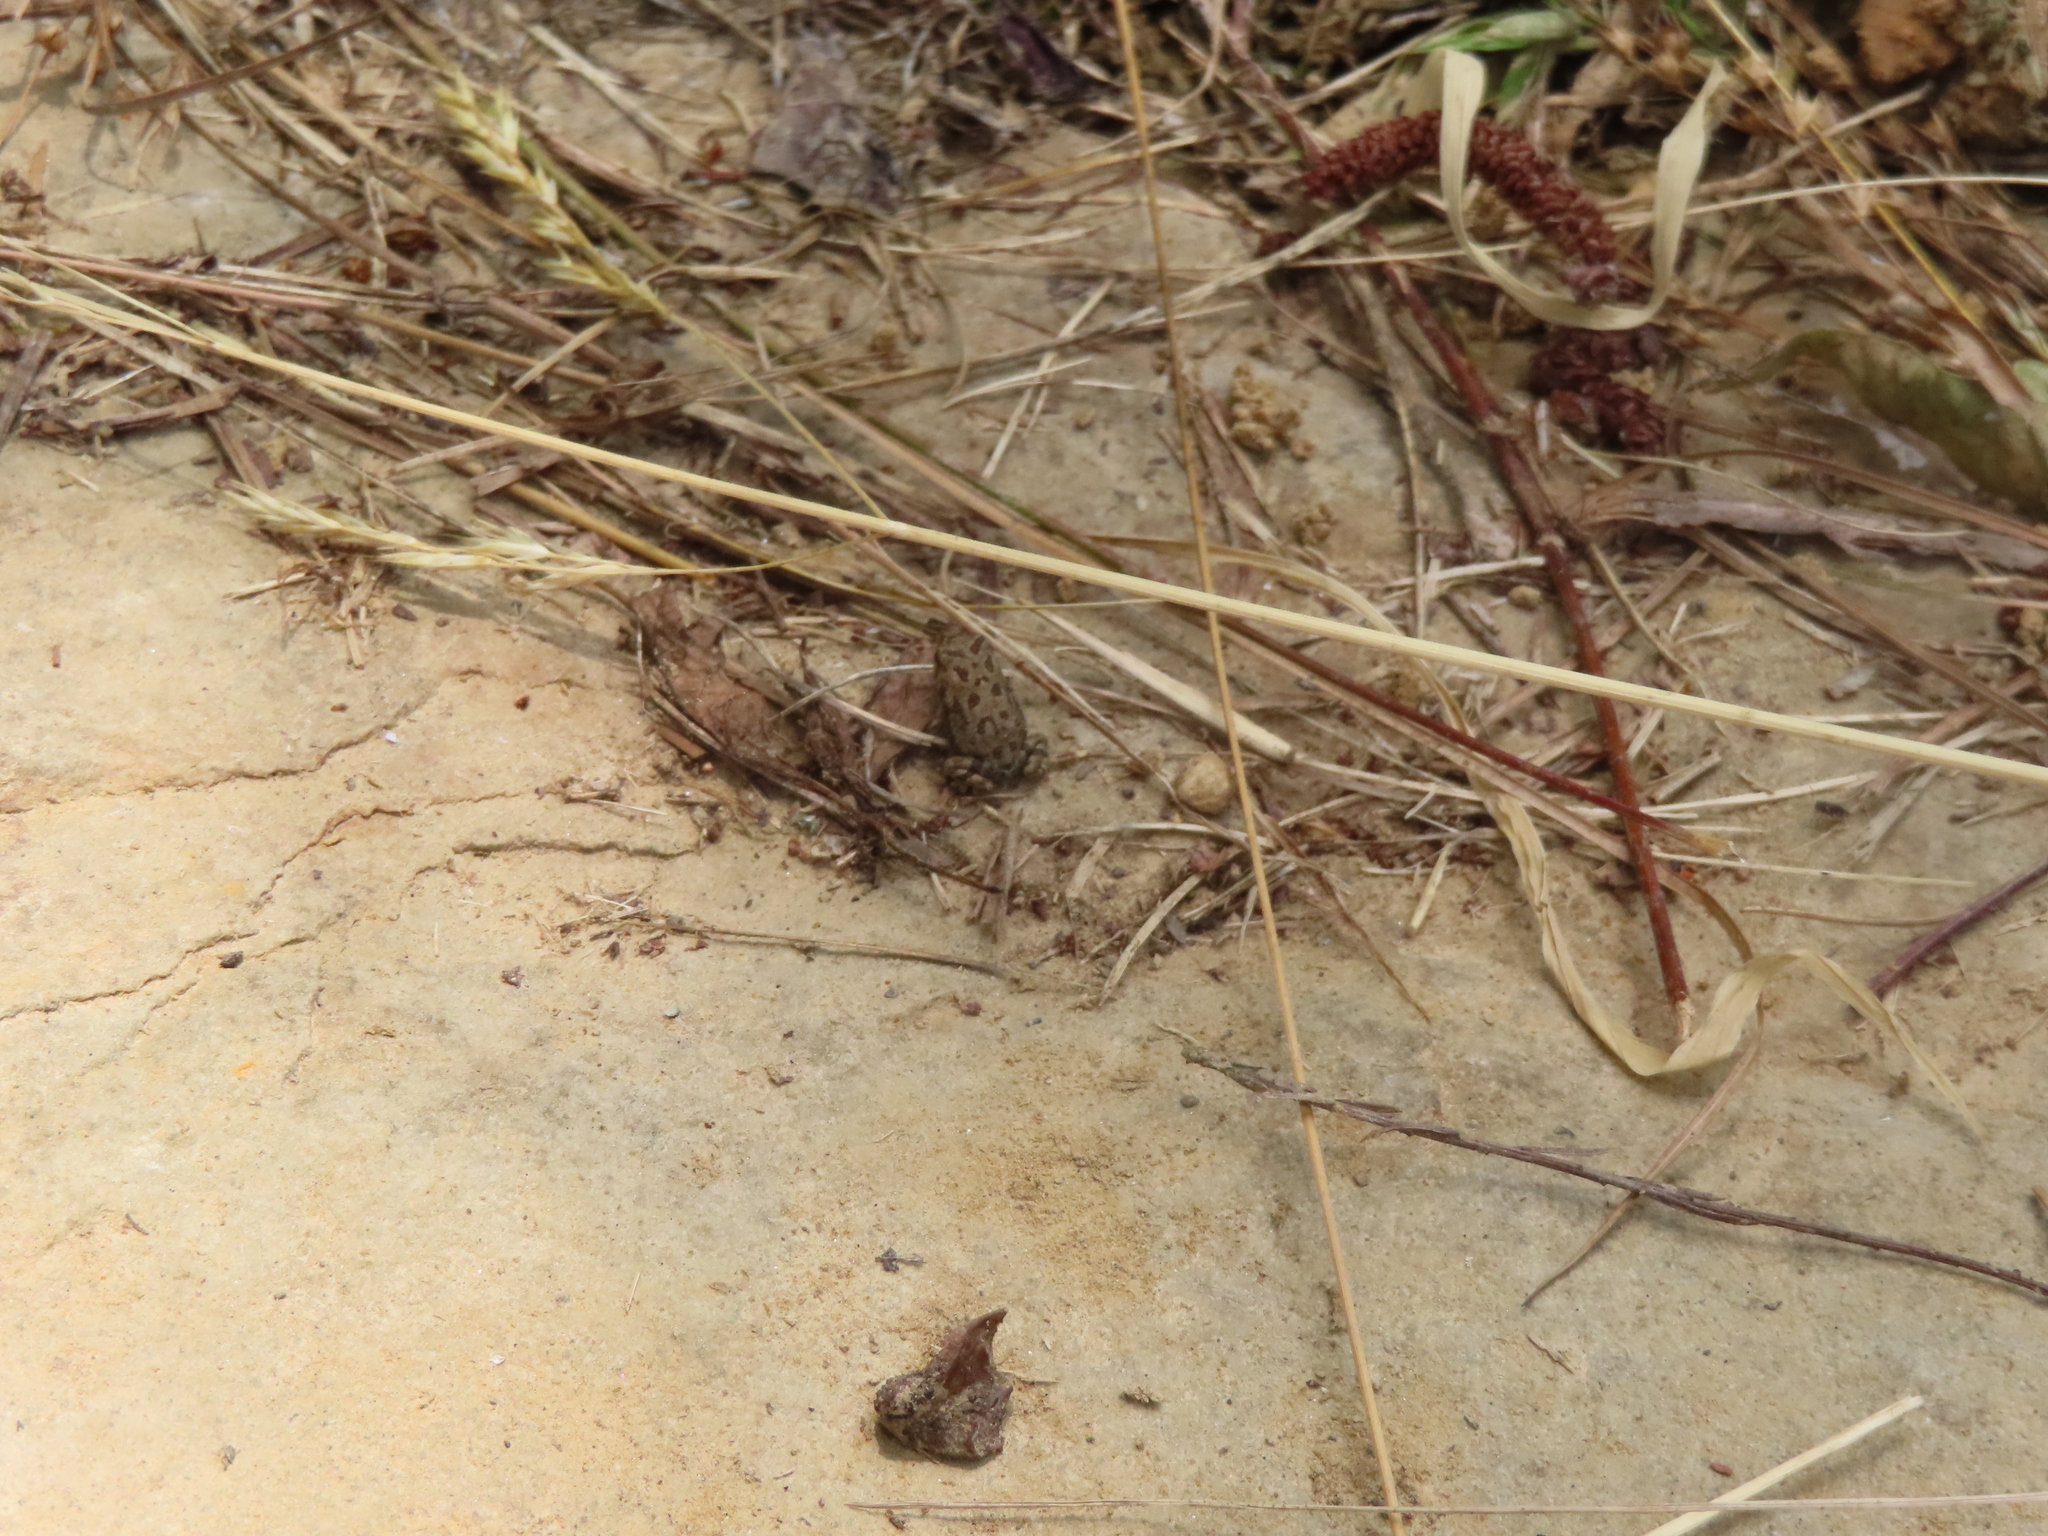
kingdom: Animalia
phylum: Chordata
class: Amphibia
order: Anura
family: Bufonidae
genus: Anaxyrus
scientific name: Anaxyrus fowleri
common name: Fowler's toad
